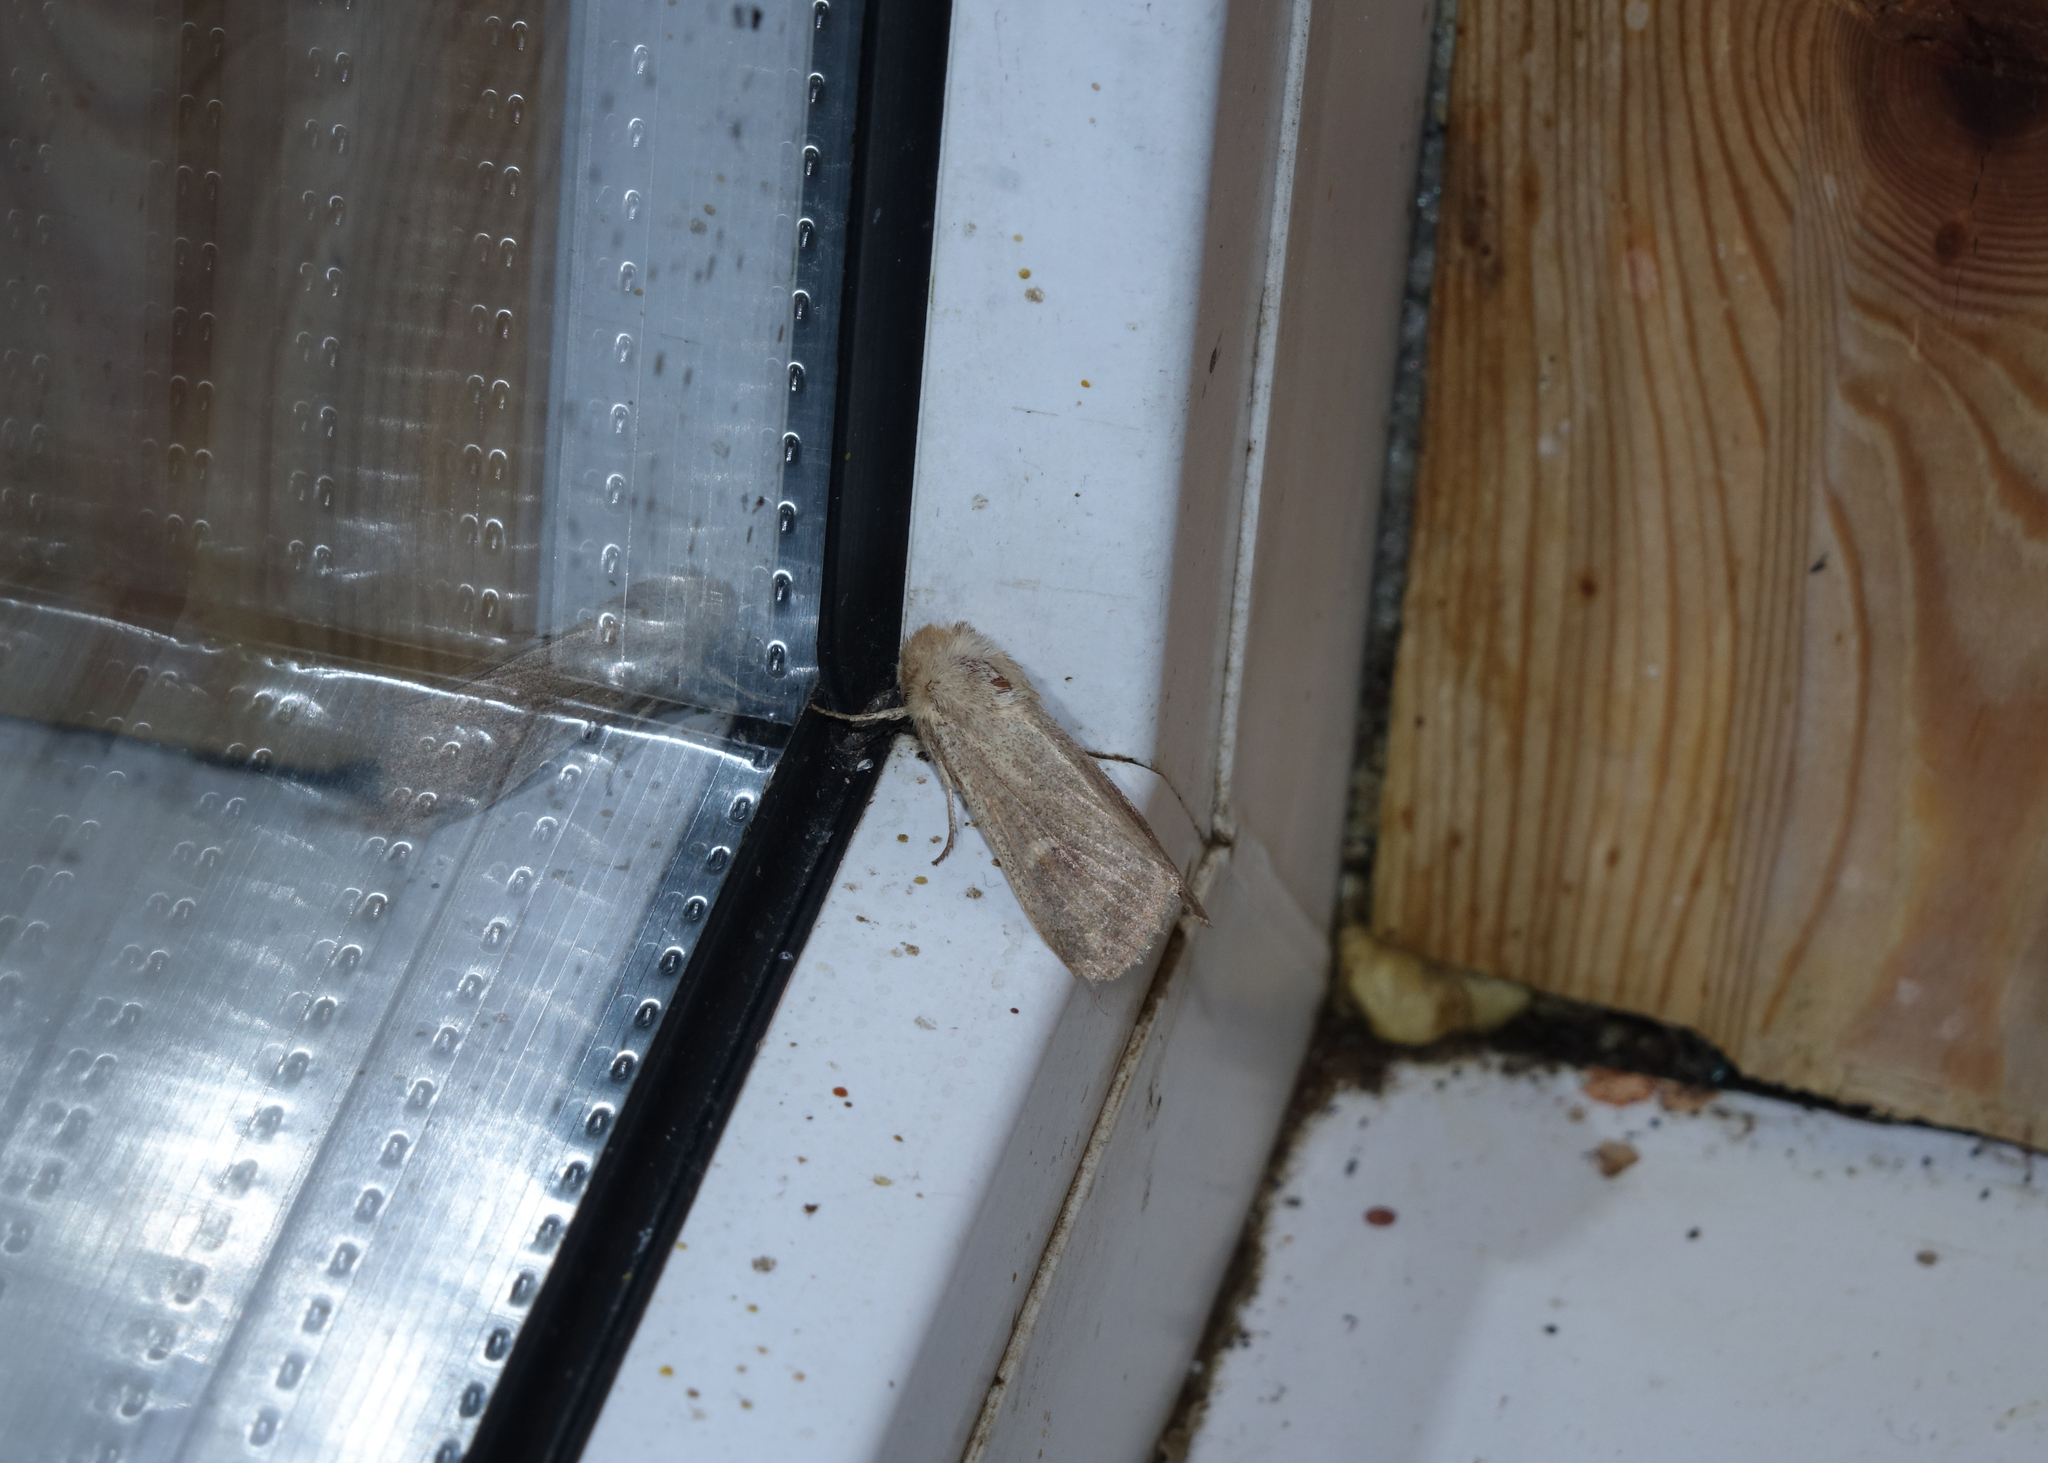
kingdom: Animalia
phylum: Arthropoda
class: Insecta
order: Lepidoptera
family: Noctuidae
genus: Mythimna
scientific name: Mythimna ferrago
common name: Clay
